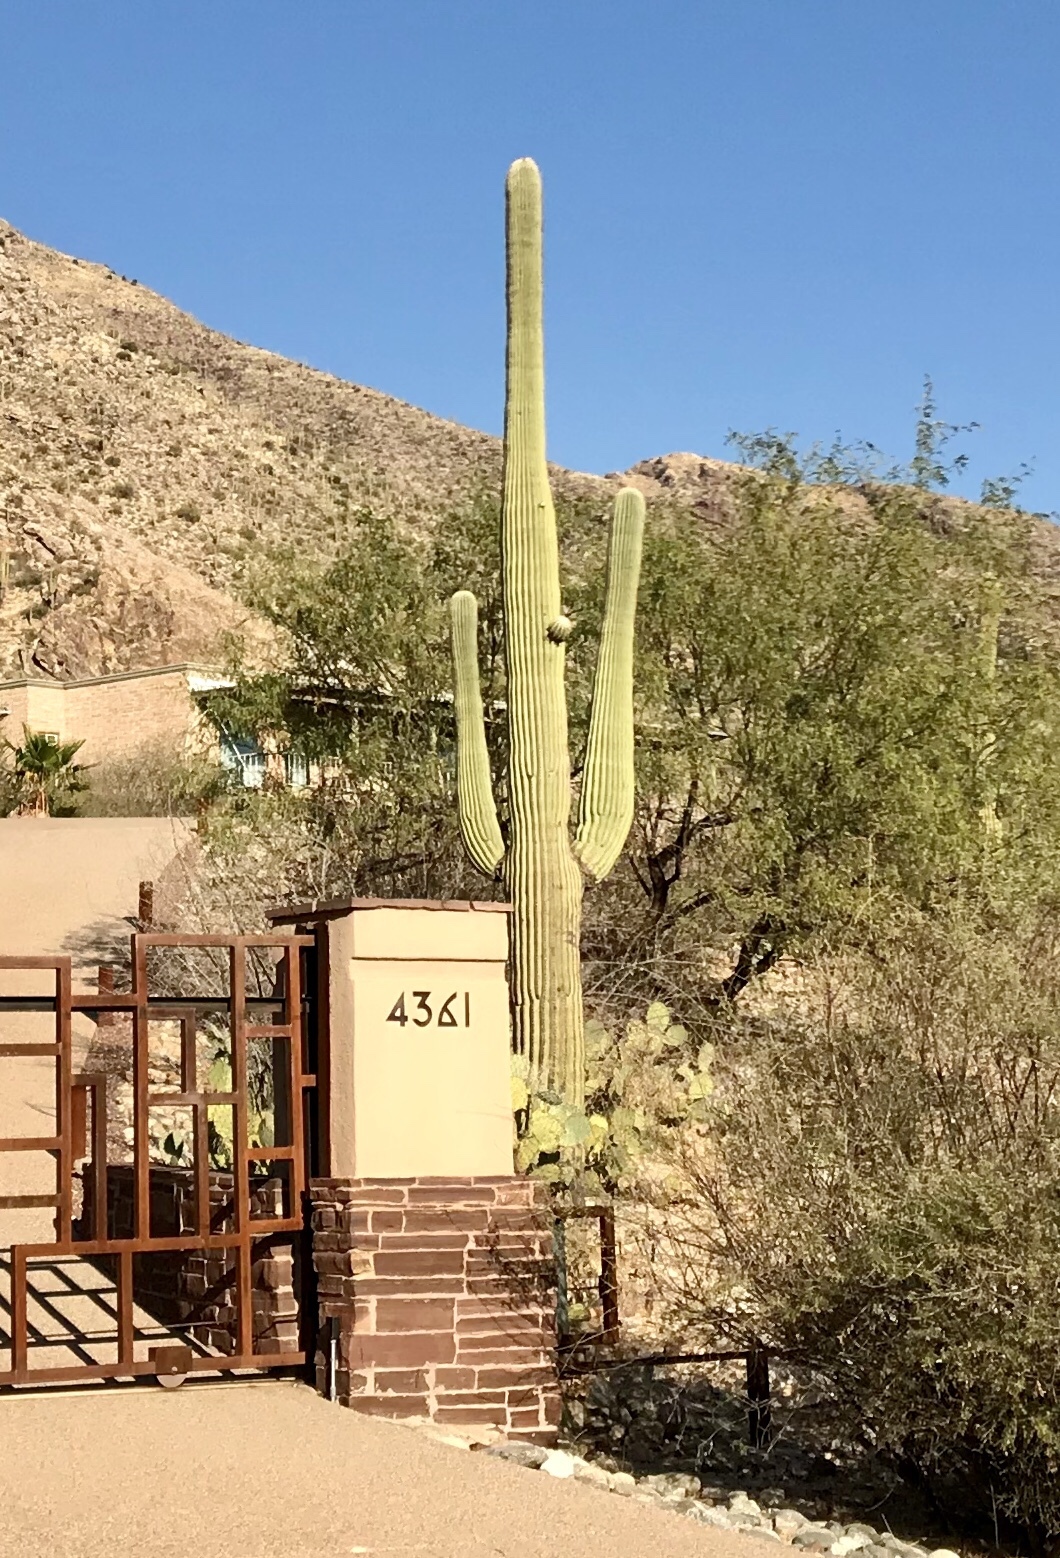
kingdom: Plantae
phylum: Tracheophyta
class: Magnoliopsida
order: Caryophyllales
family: Cactaceae
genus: Carnegiea
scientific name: Carnegiea gigantea
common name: Saguaro
